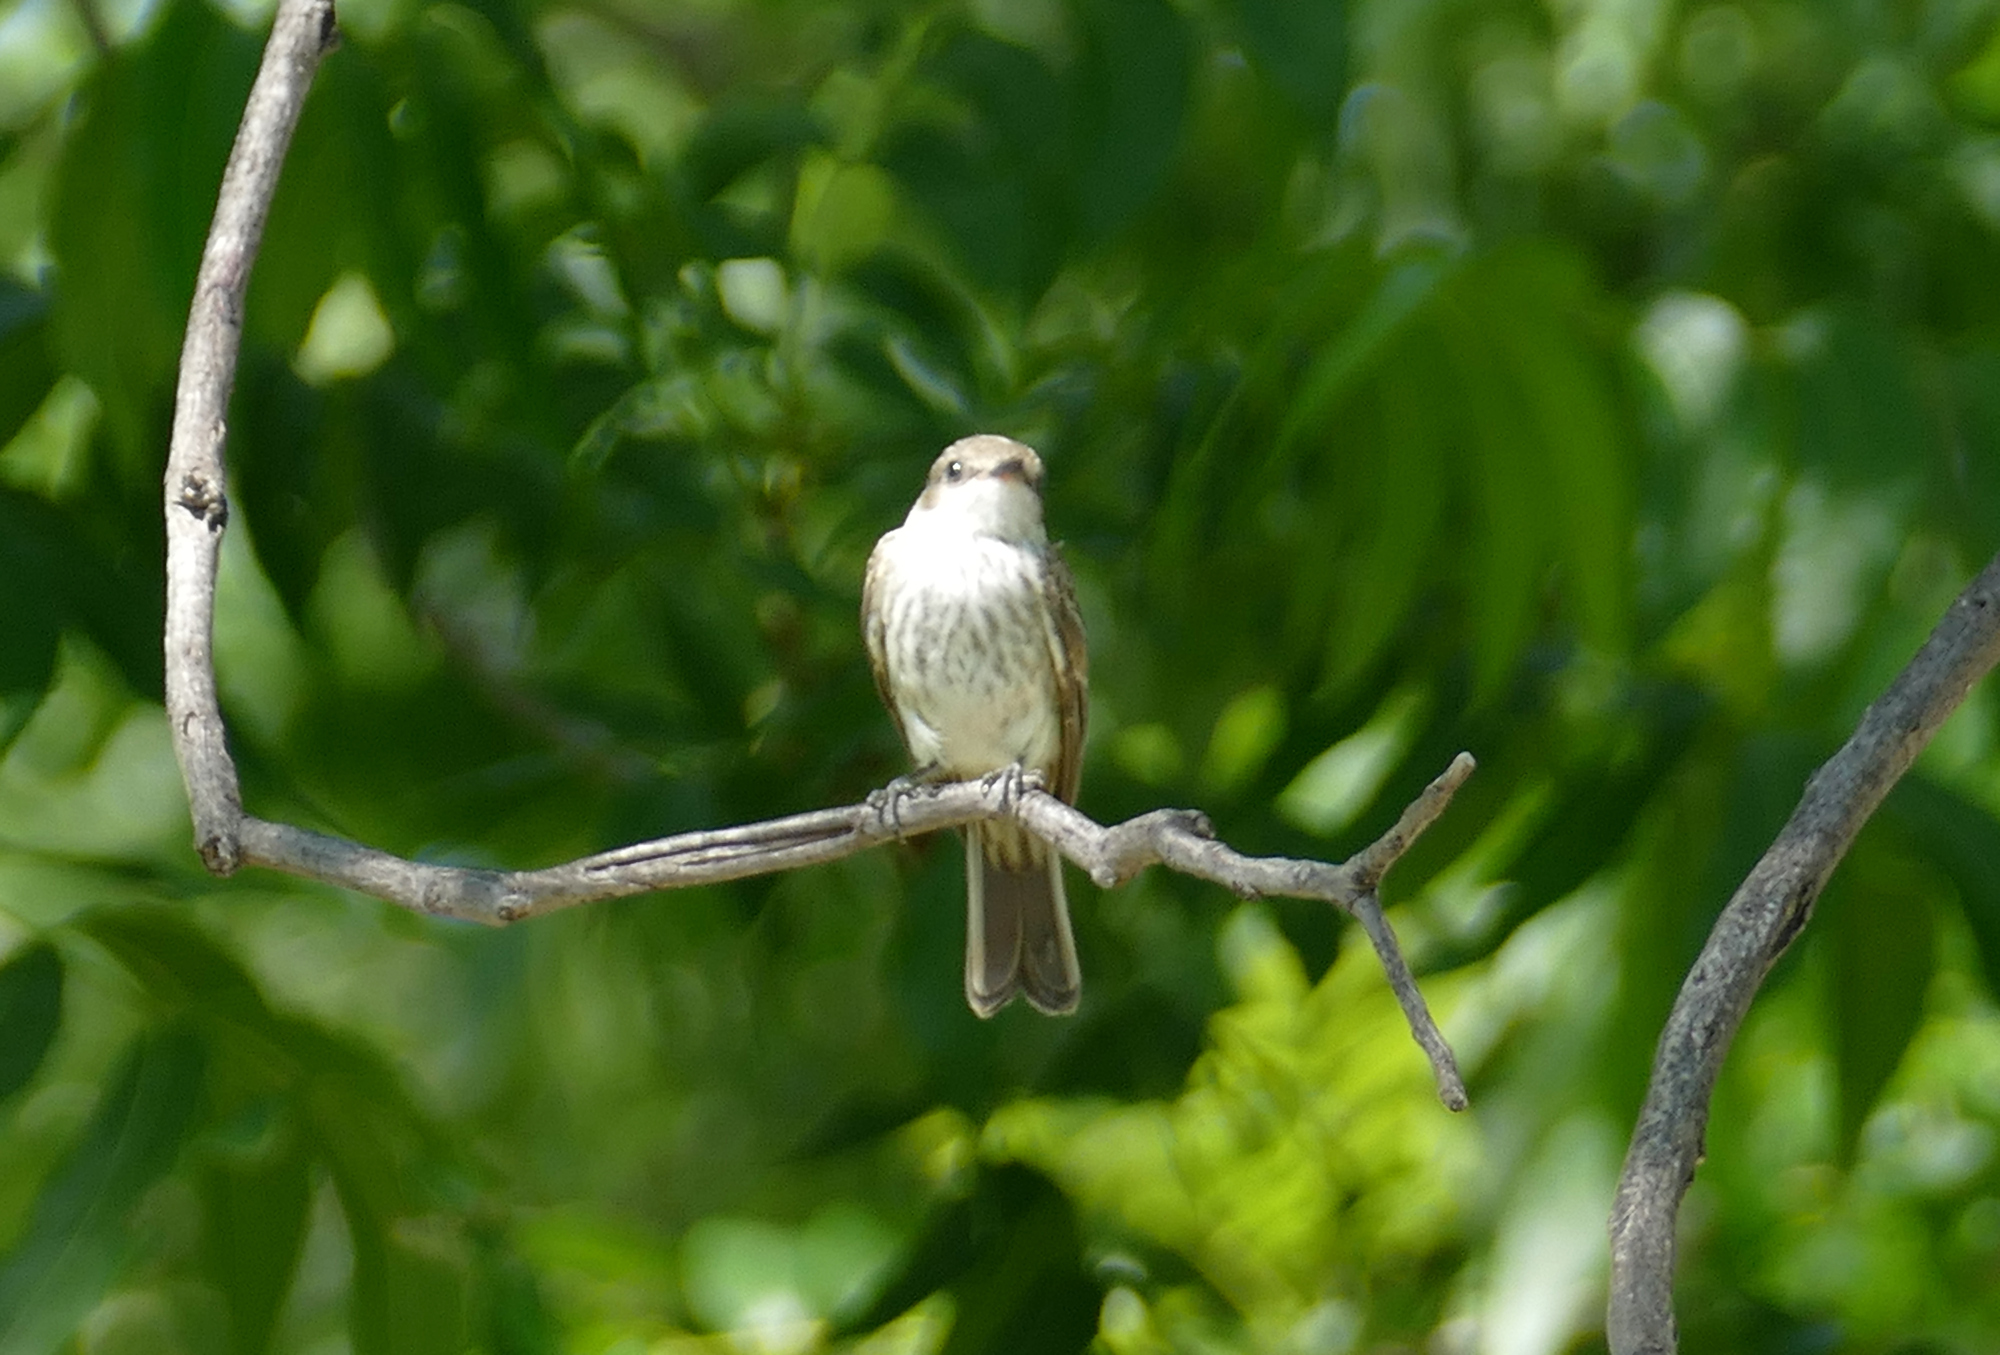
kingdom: Animalia
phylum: Chordata
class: Aves
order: Passeriformes
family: Tyrannidae
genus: Pyrocephalus
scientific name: Pyrocephalus rubinus
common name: Vermilion flycatcher
